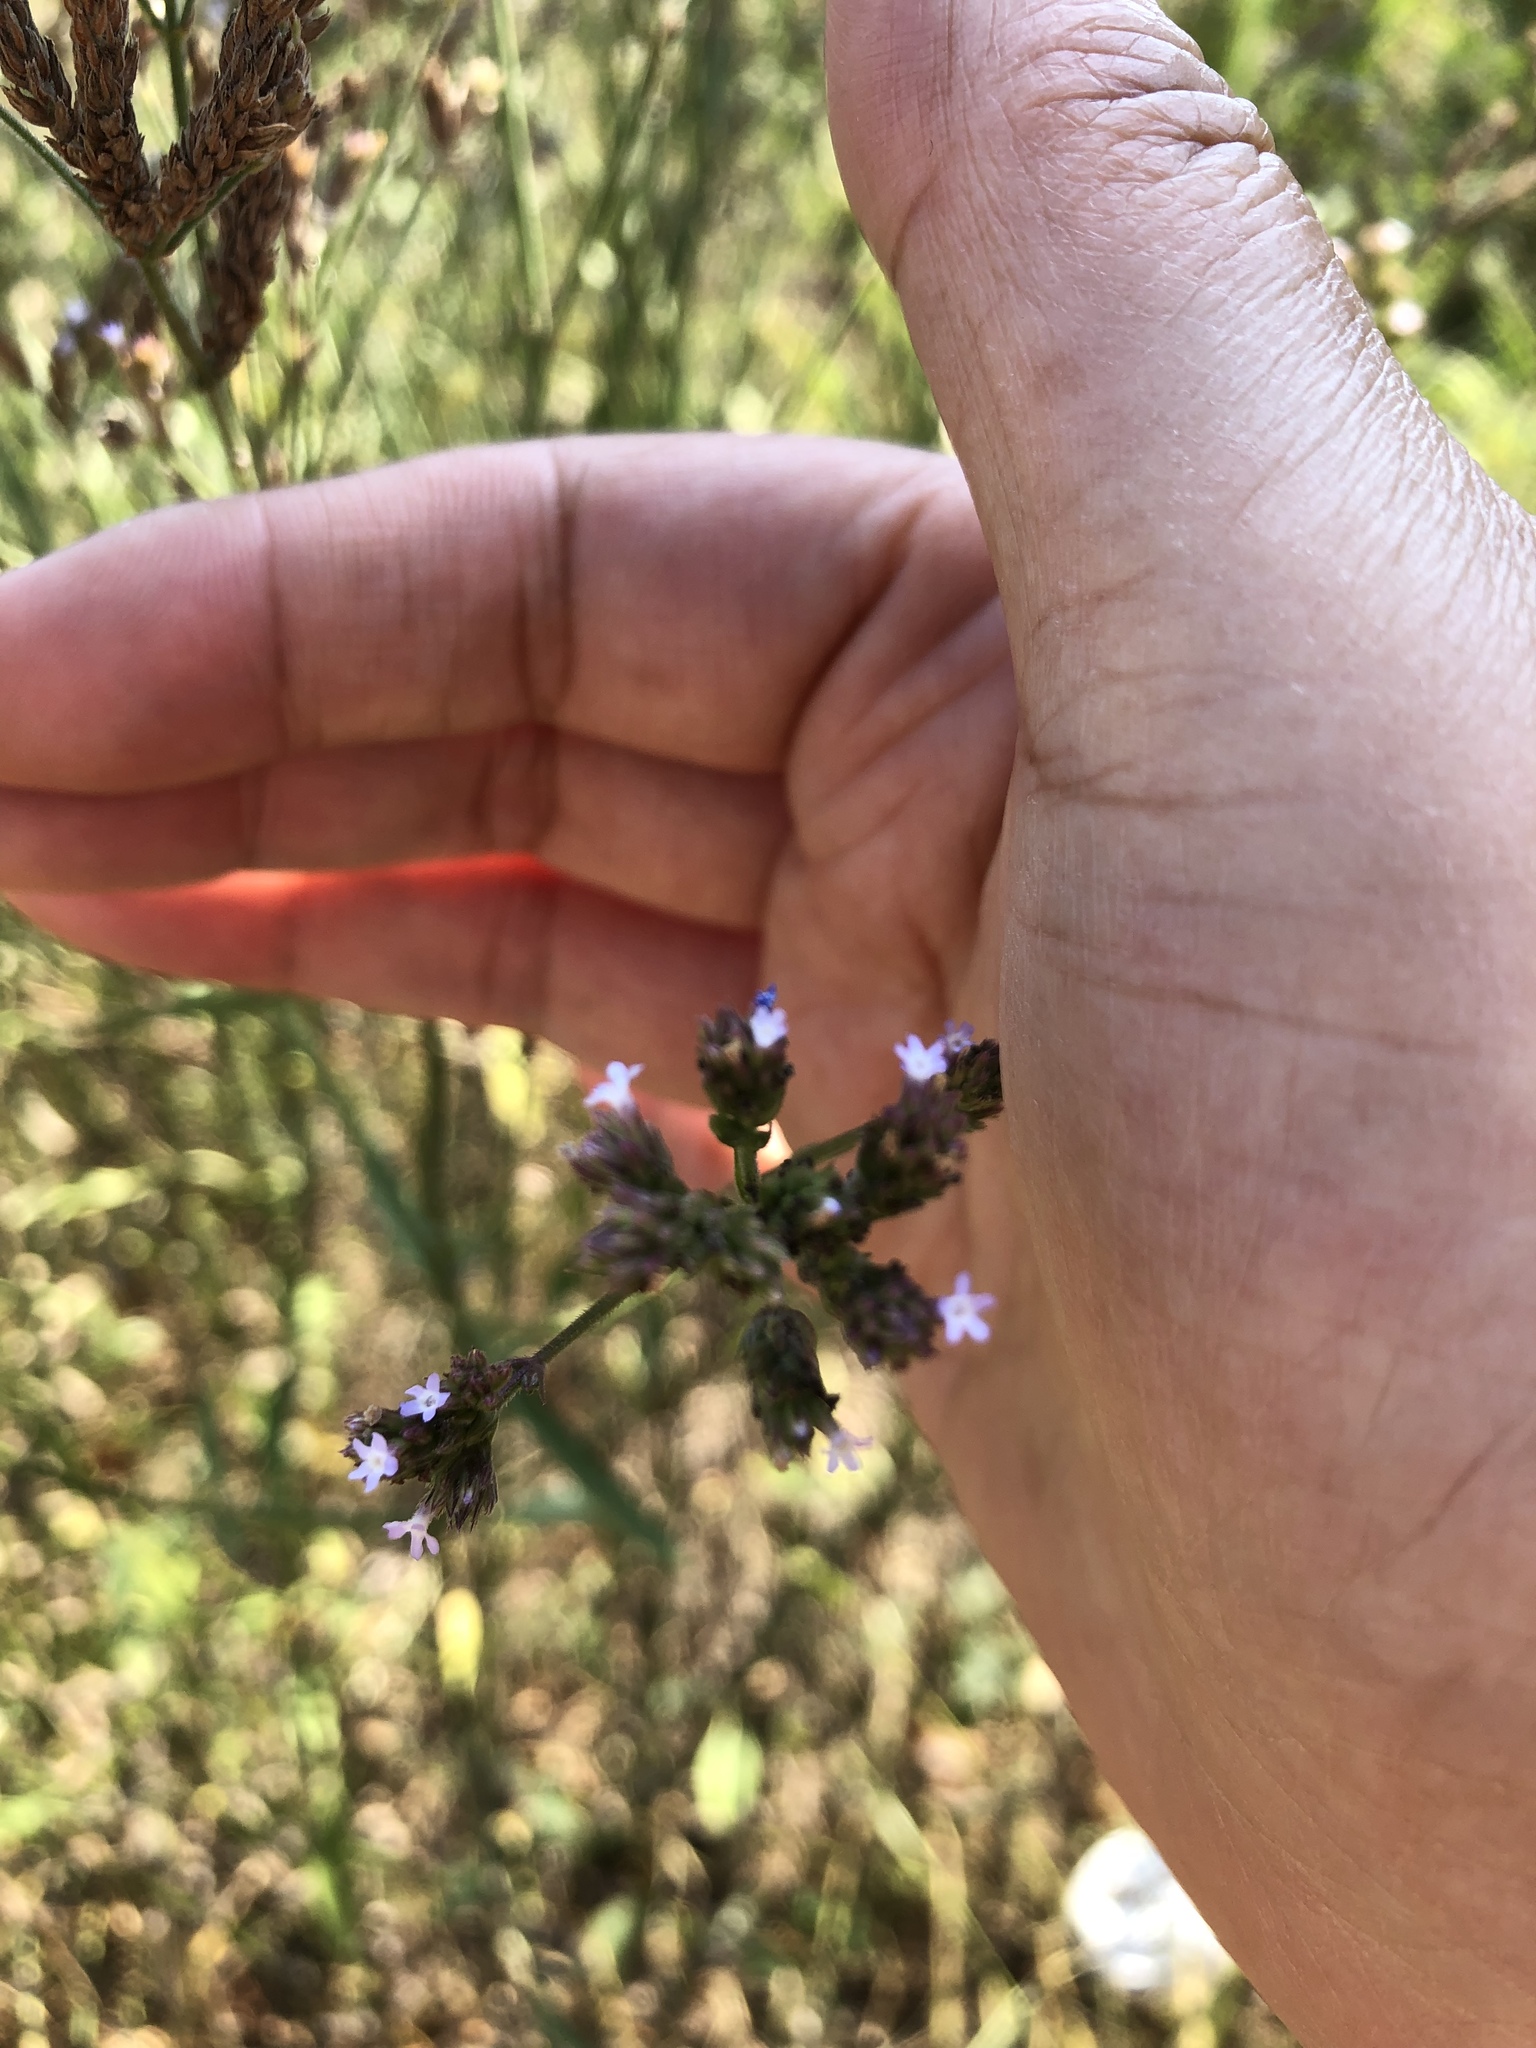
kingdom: Plantae
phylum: Tracheophyta
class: Magnoliopsida
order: Lamiales
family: Verbenaceae
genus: Verbena
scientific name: Verbena brasiliensis
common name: Brazilian vervain
